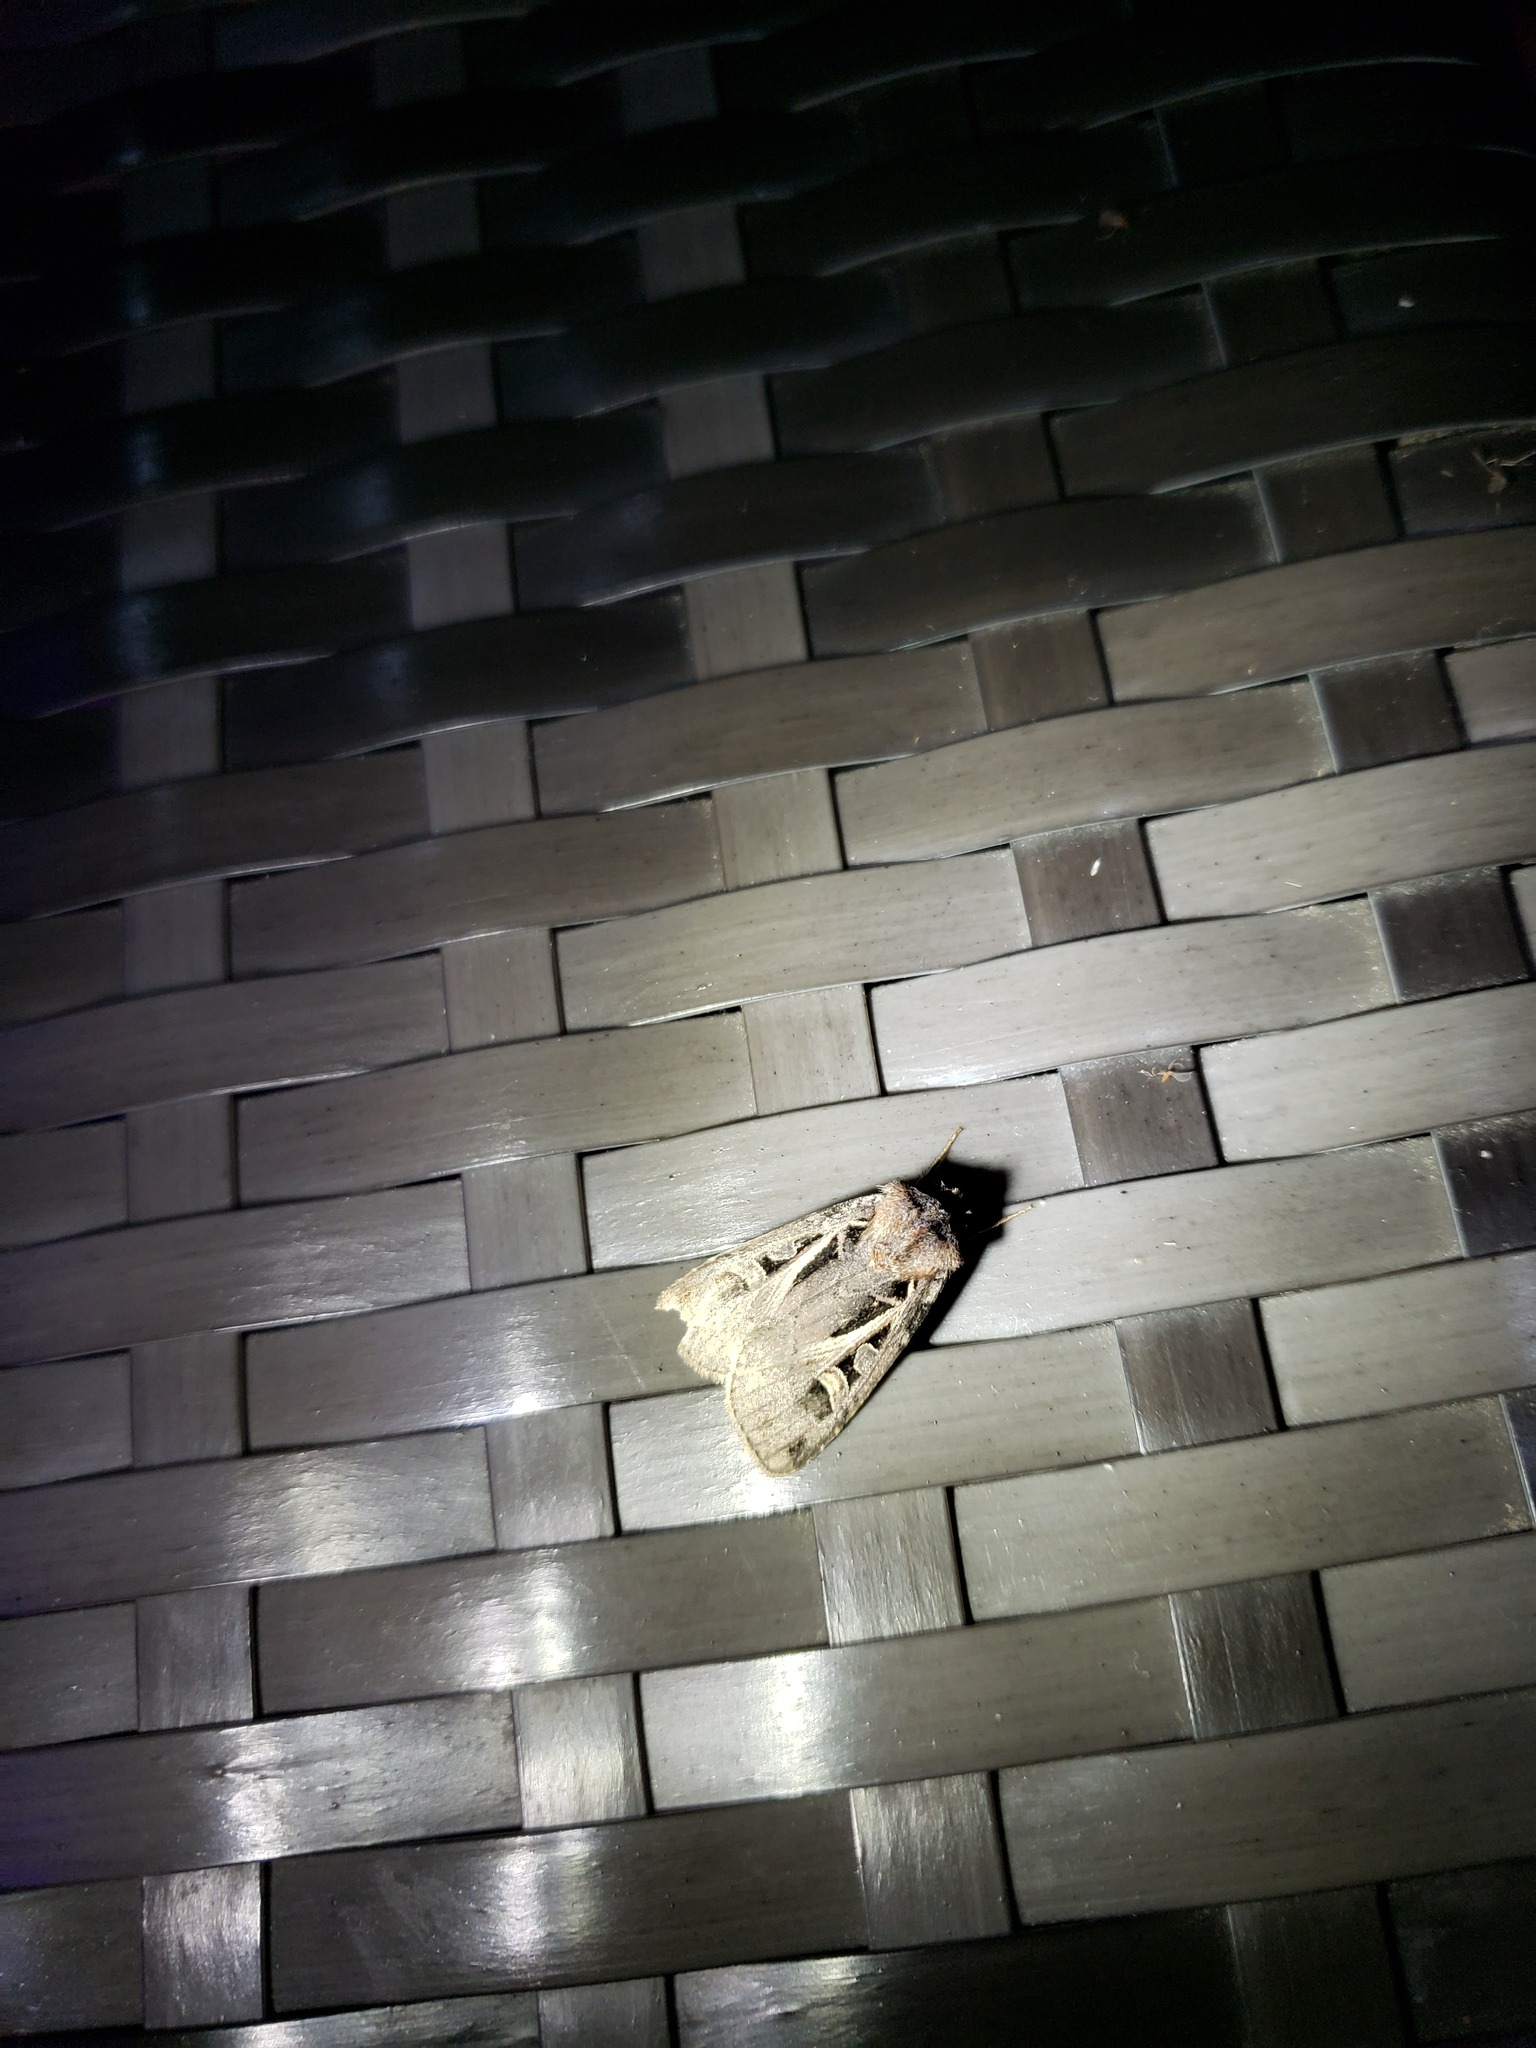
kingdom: Animalia
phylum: Arthropoda
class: Insecta
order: Lepidoptera
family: Noctuidae
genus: Feltia
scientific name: Feltia herilis
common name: Master's dart
